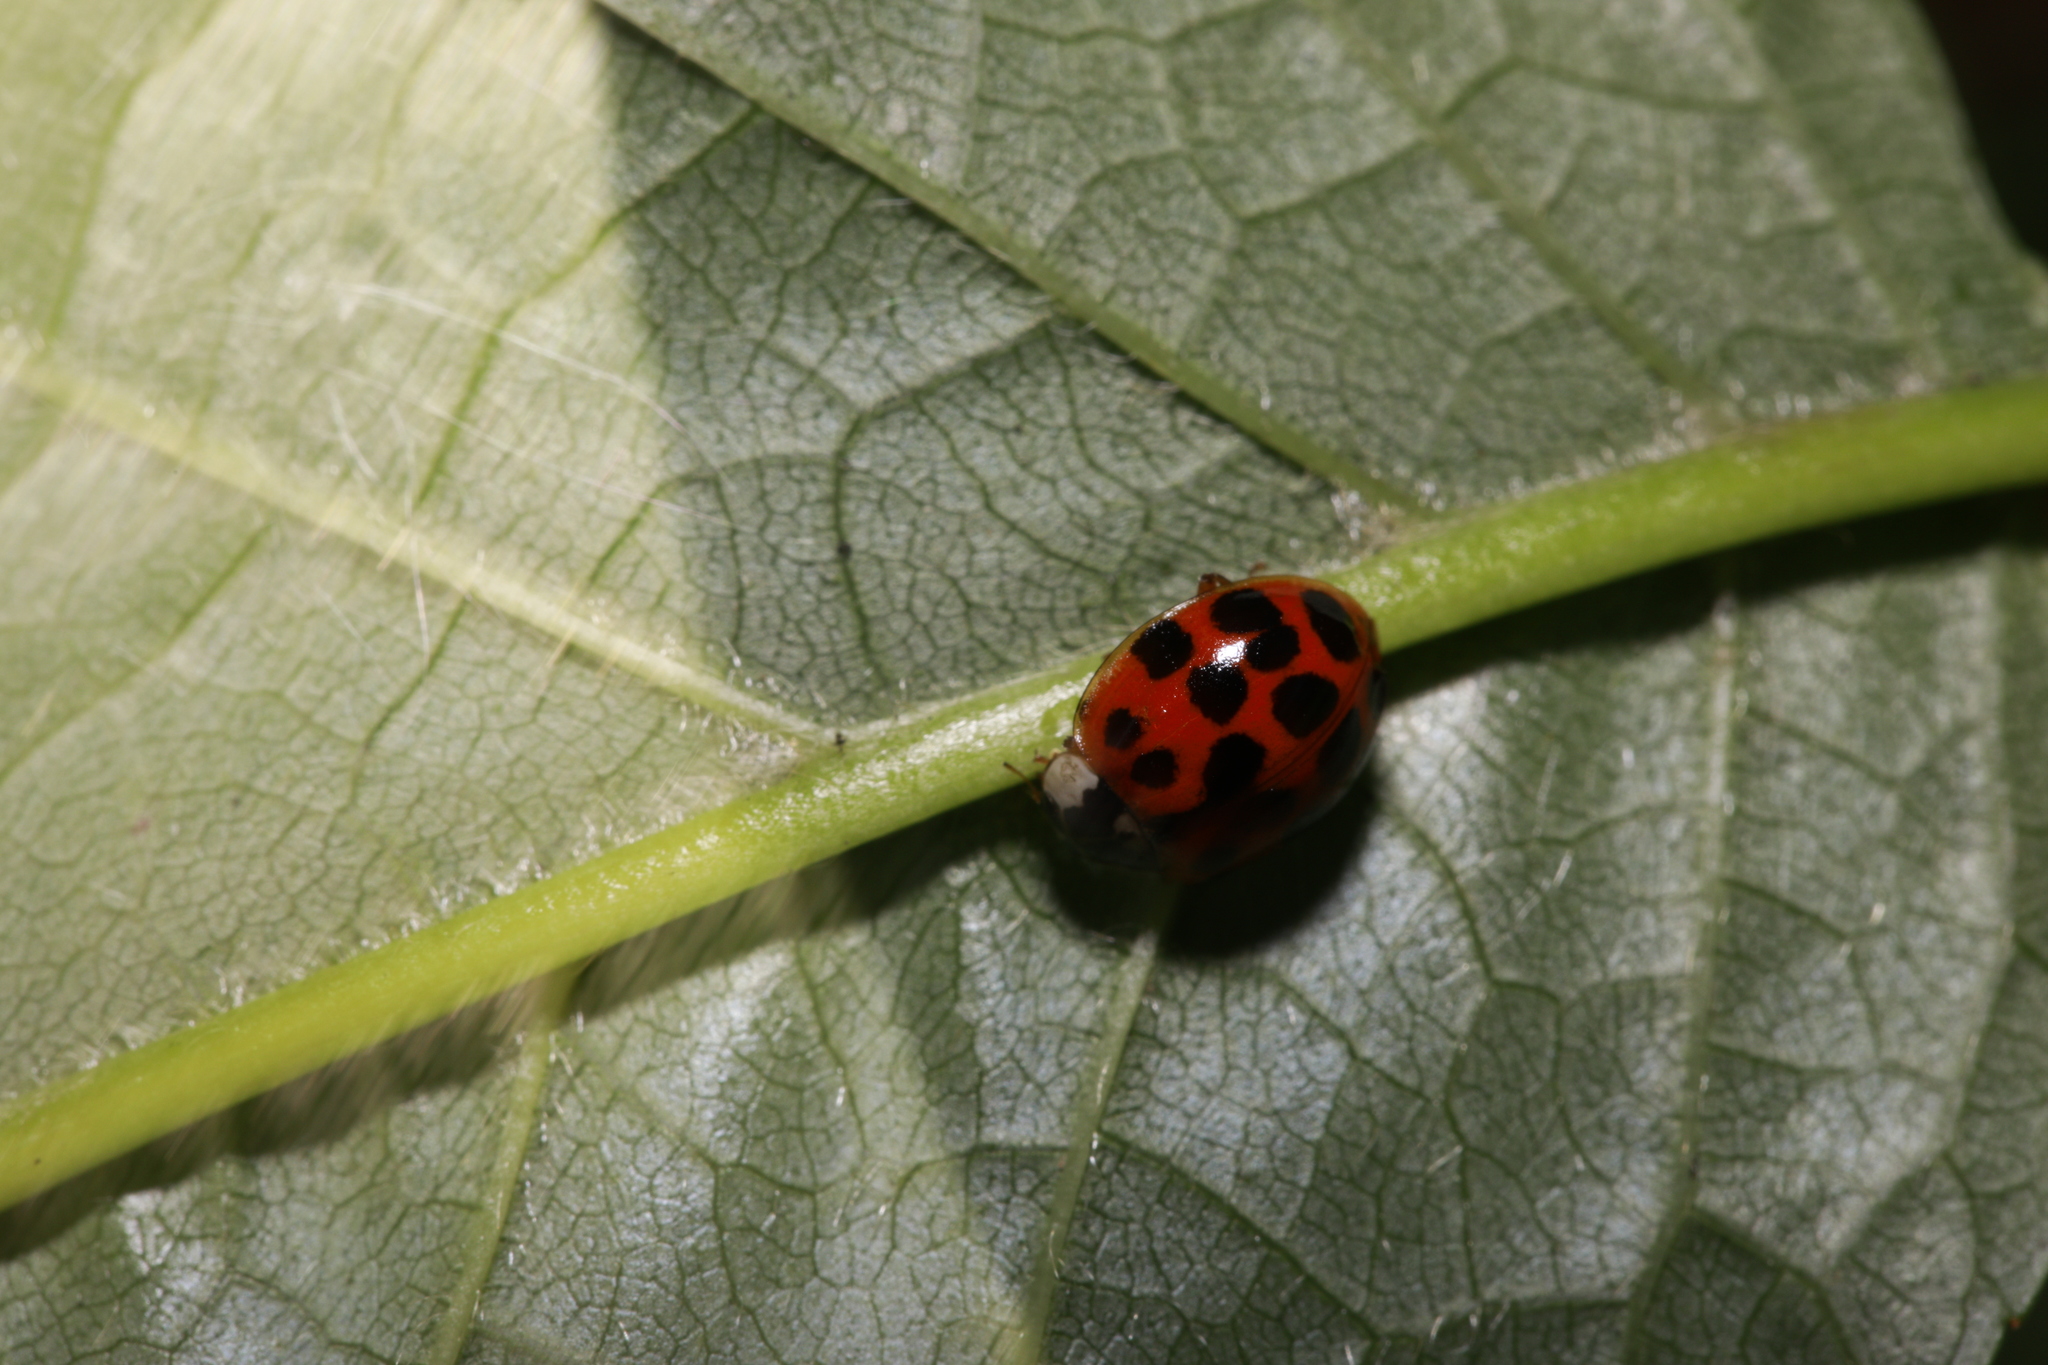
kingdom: Animalia
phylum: Arthropoda
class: Insecta
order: Coleoptera
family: Coccinellidae
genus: Harmonia
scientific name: Harmonia axyridis
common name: Harlequin ladybird
